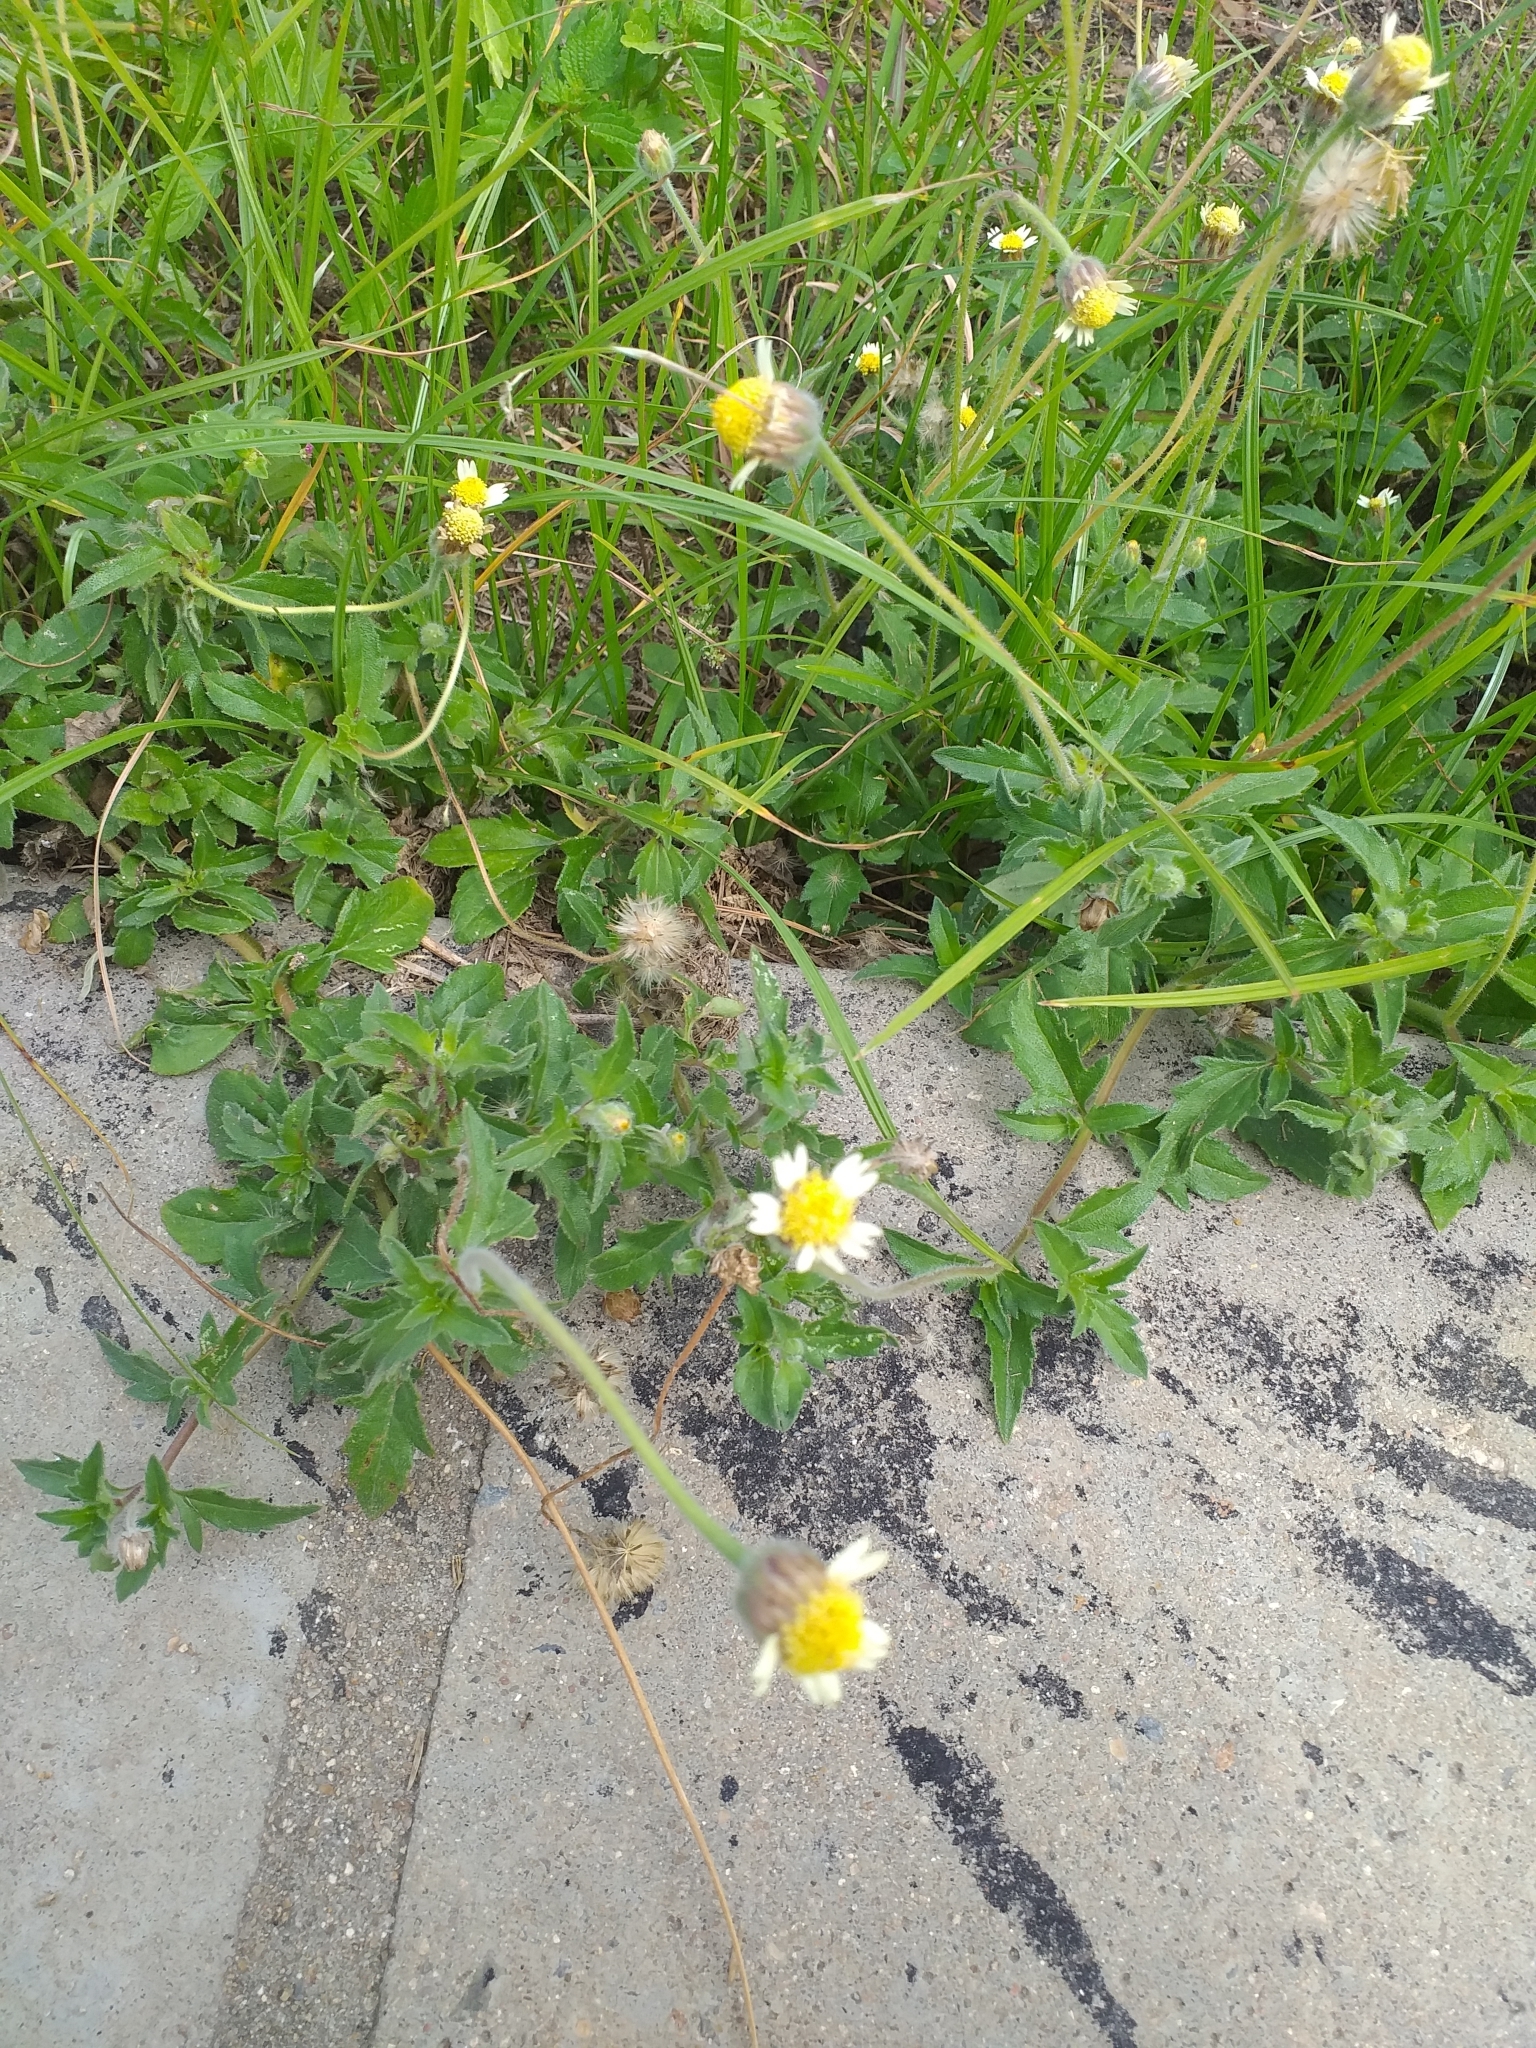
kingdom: Plantae
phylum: Tracheophyta
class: Magnoliopsida
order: Asterales
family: Asteraceae
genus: Tridax
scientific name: Tridax procumbens
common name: Coatbuttons
